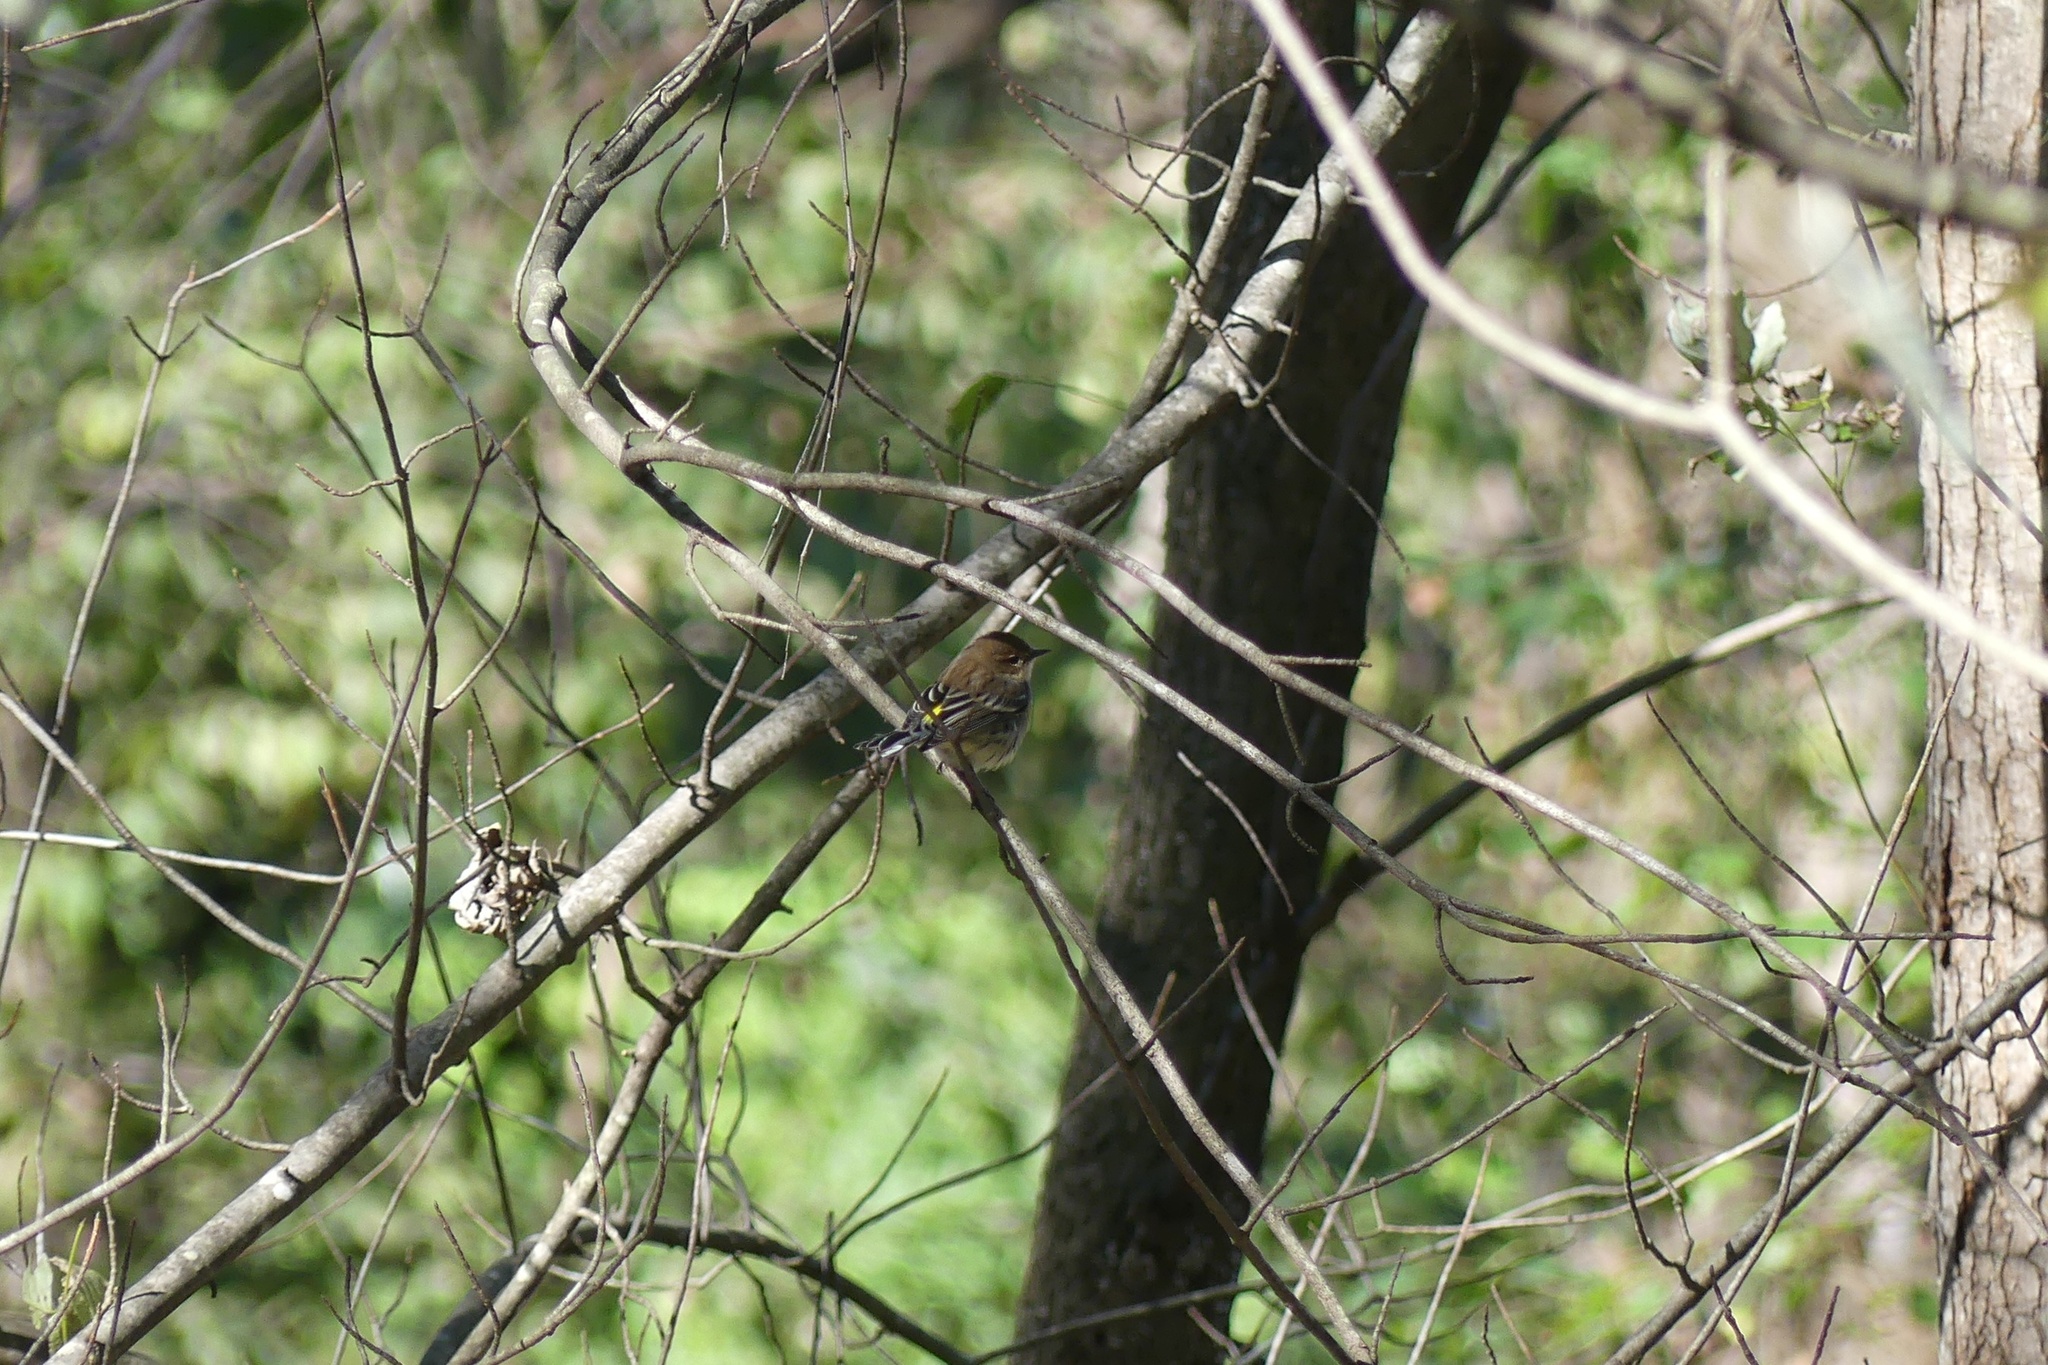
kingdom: Animalia
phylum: Chordata
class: Aves
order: Passeriformes
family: Parulidae
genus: Setophaga
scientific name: Setophaga coronata
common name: Myrtle warbler
